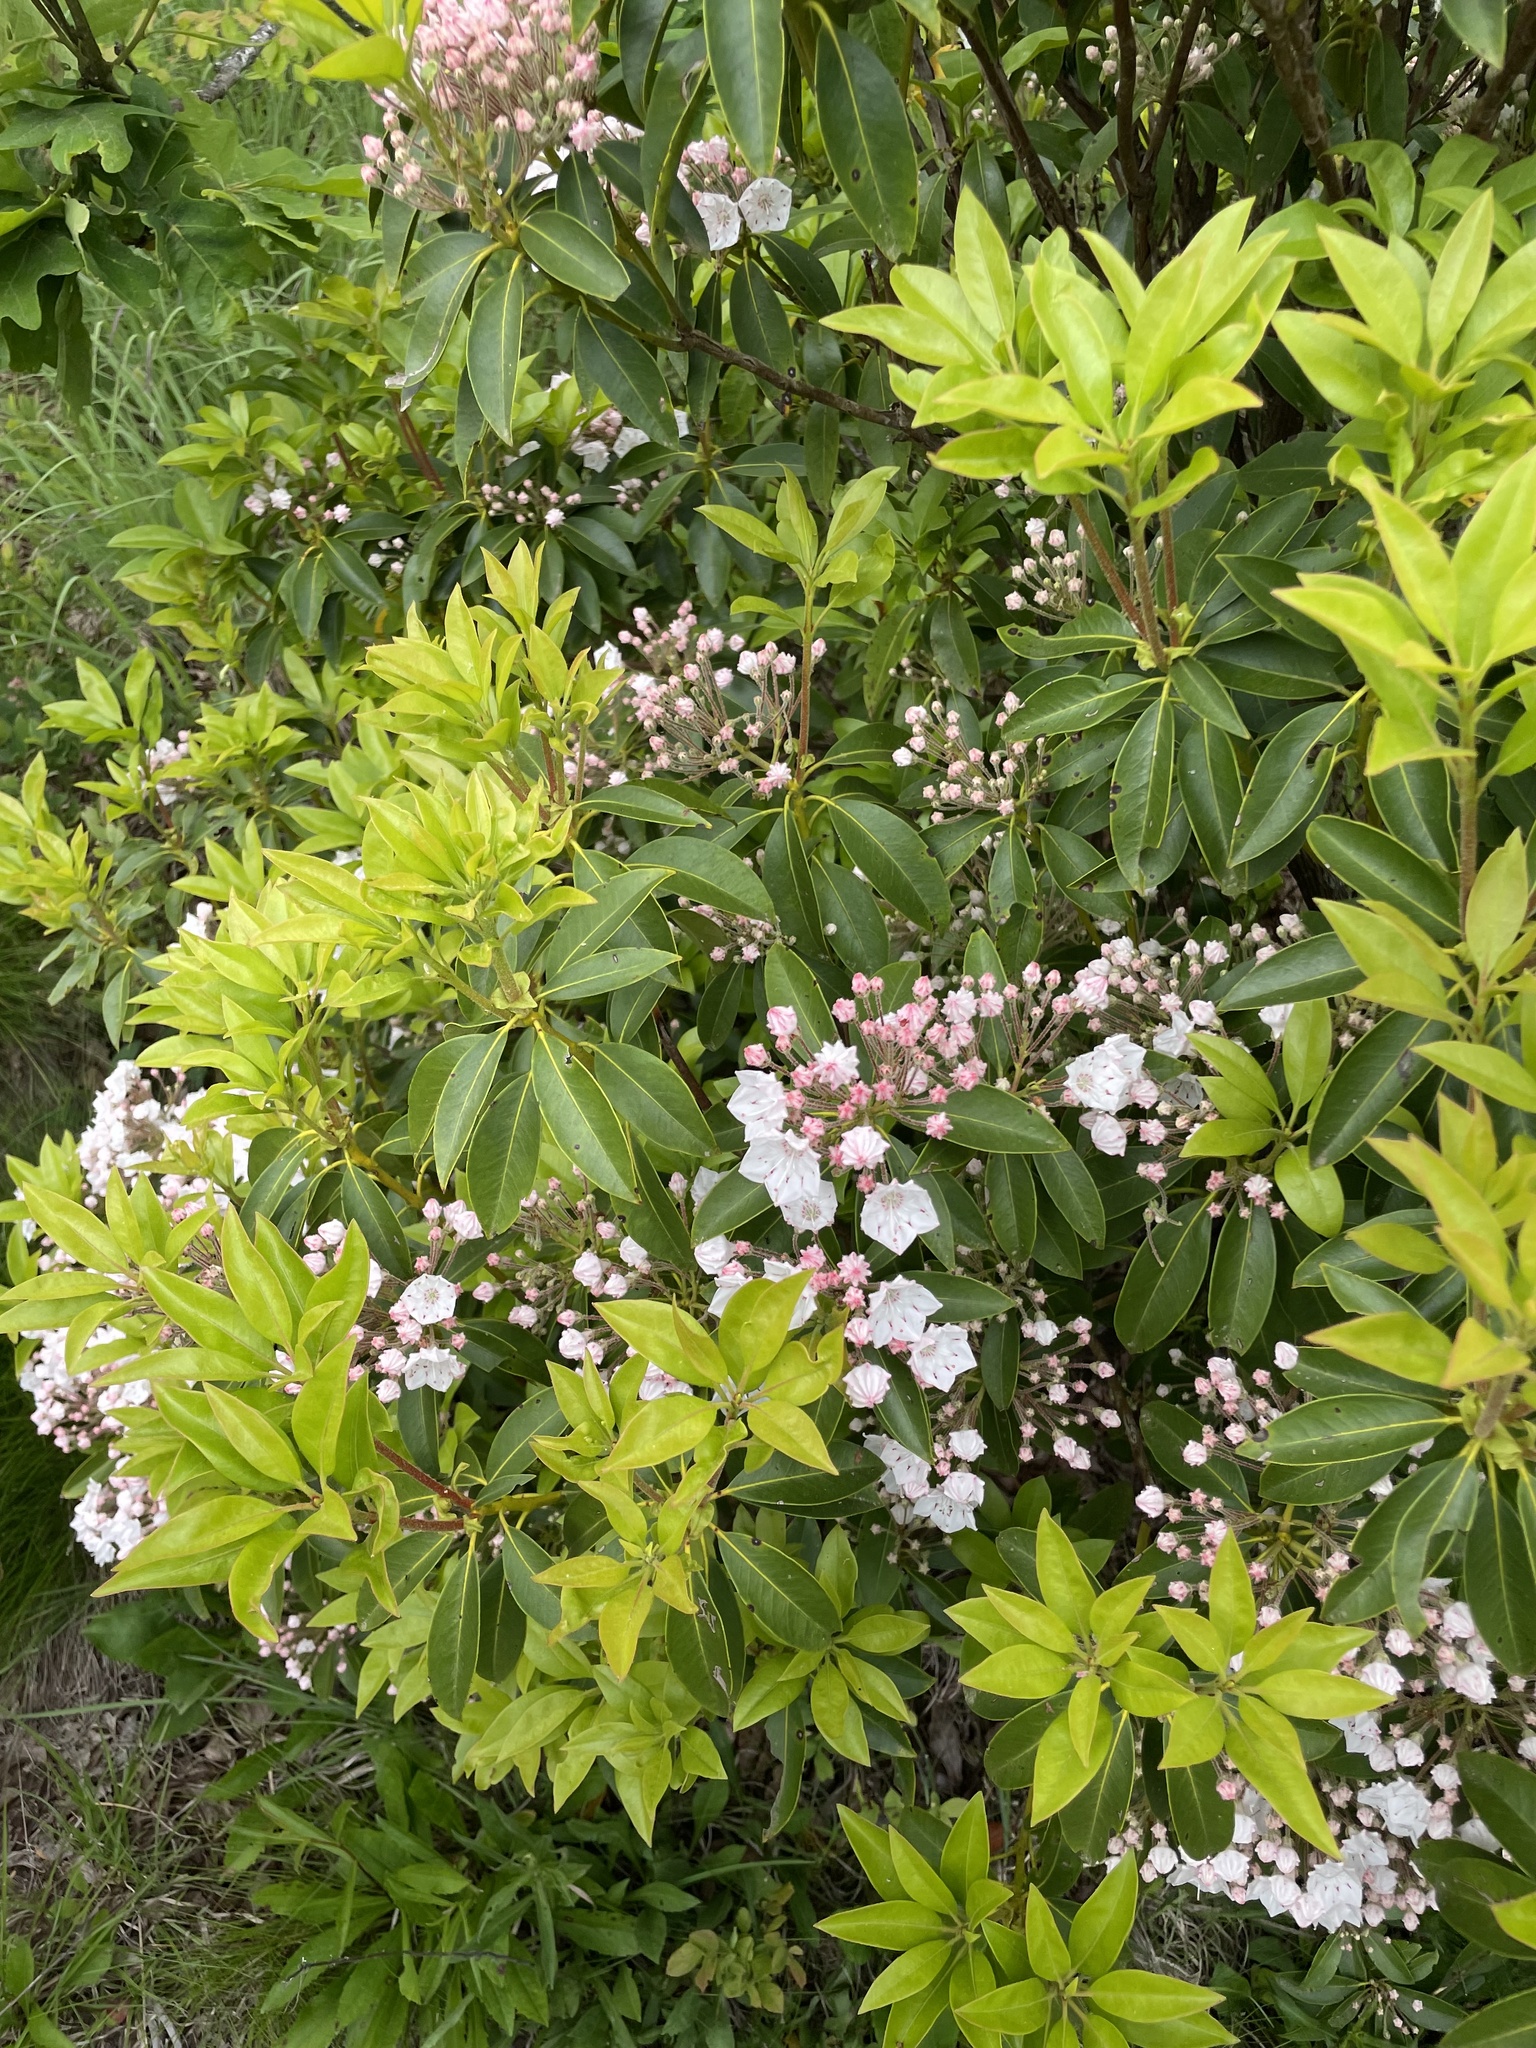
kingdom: Plantae
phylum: Tracheophyta
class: Magnoliopsida
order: Ericales
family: Ericaceae
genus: Kalmia
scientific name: Kalmia latifolia
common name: Mountain-laurel
